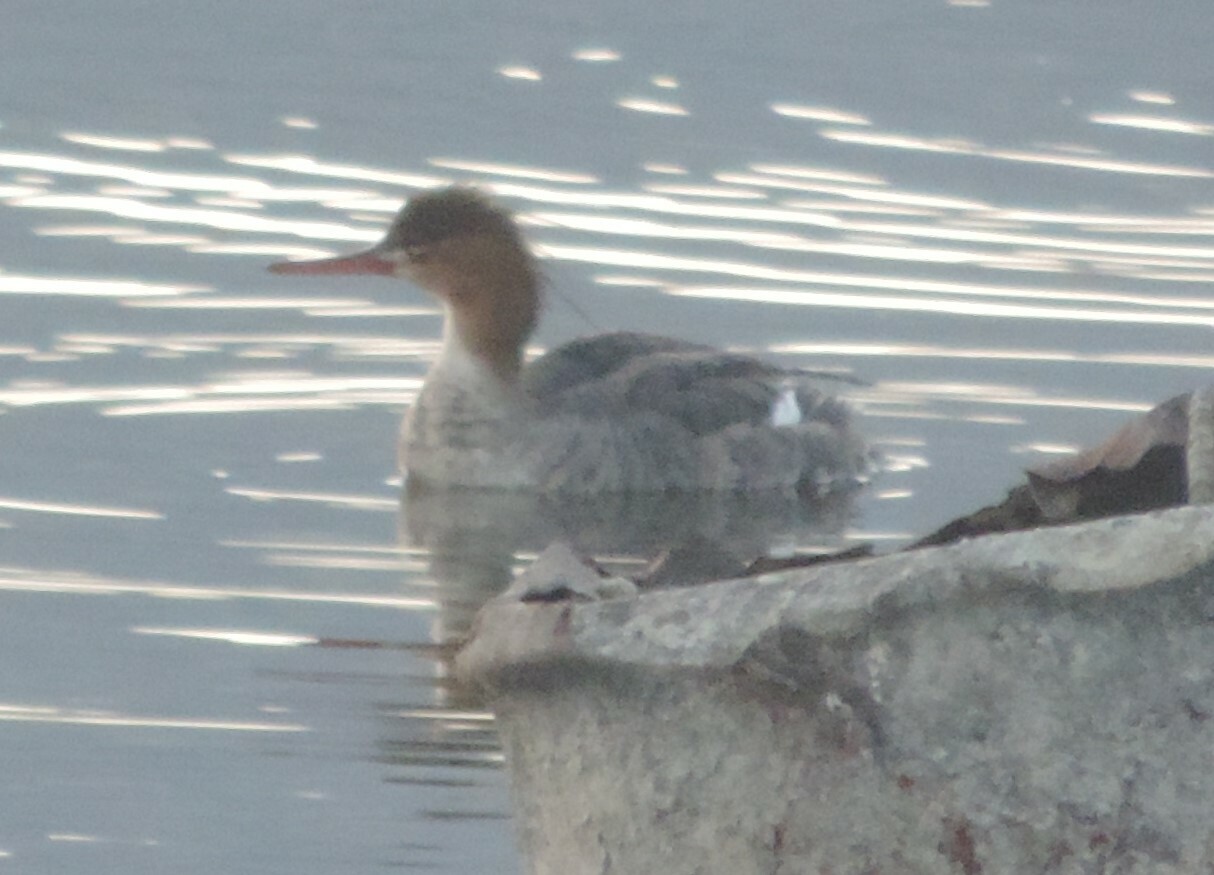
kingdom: Animalia
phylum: Chordata
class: Aves
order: Anseriformes
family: Anatidae
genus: Mergus
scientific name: Mergus serrator
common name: Red-breasted merganser
